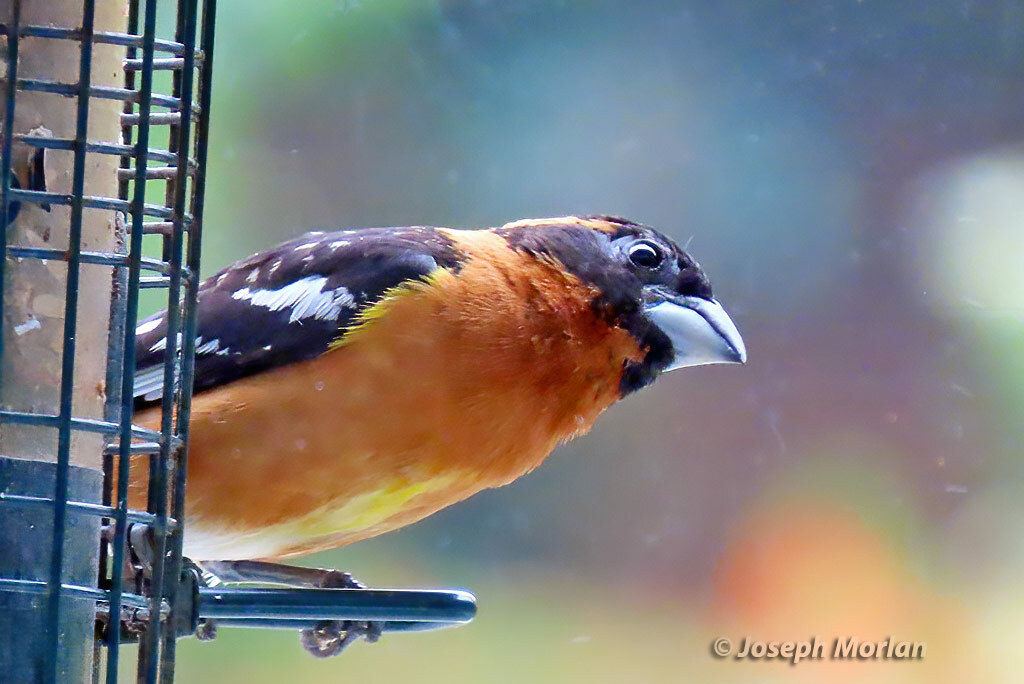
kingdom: Animalia
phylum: Chordata
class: Aves
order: Passeriformes
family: Cardinalidae
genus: Pheucticus
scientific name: Pheucticus melanocephalus
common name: Black-headed grosbeak
